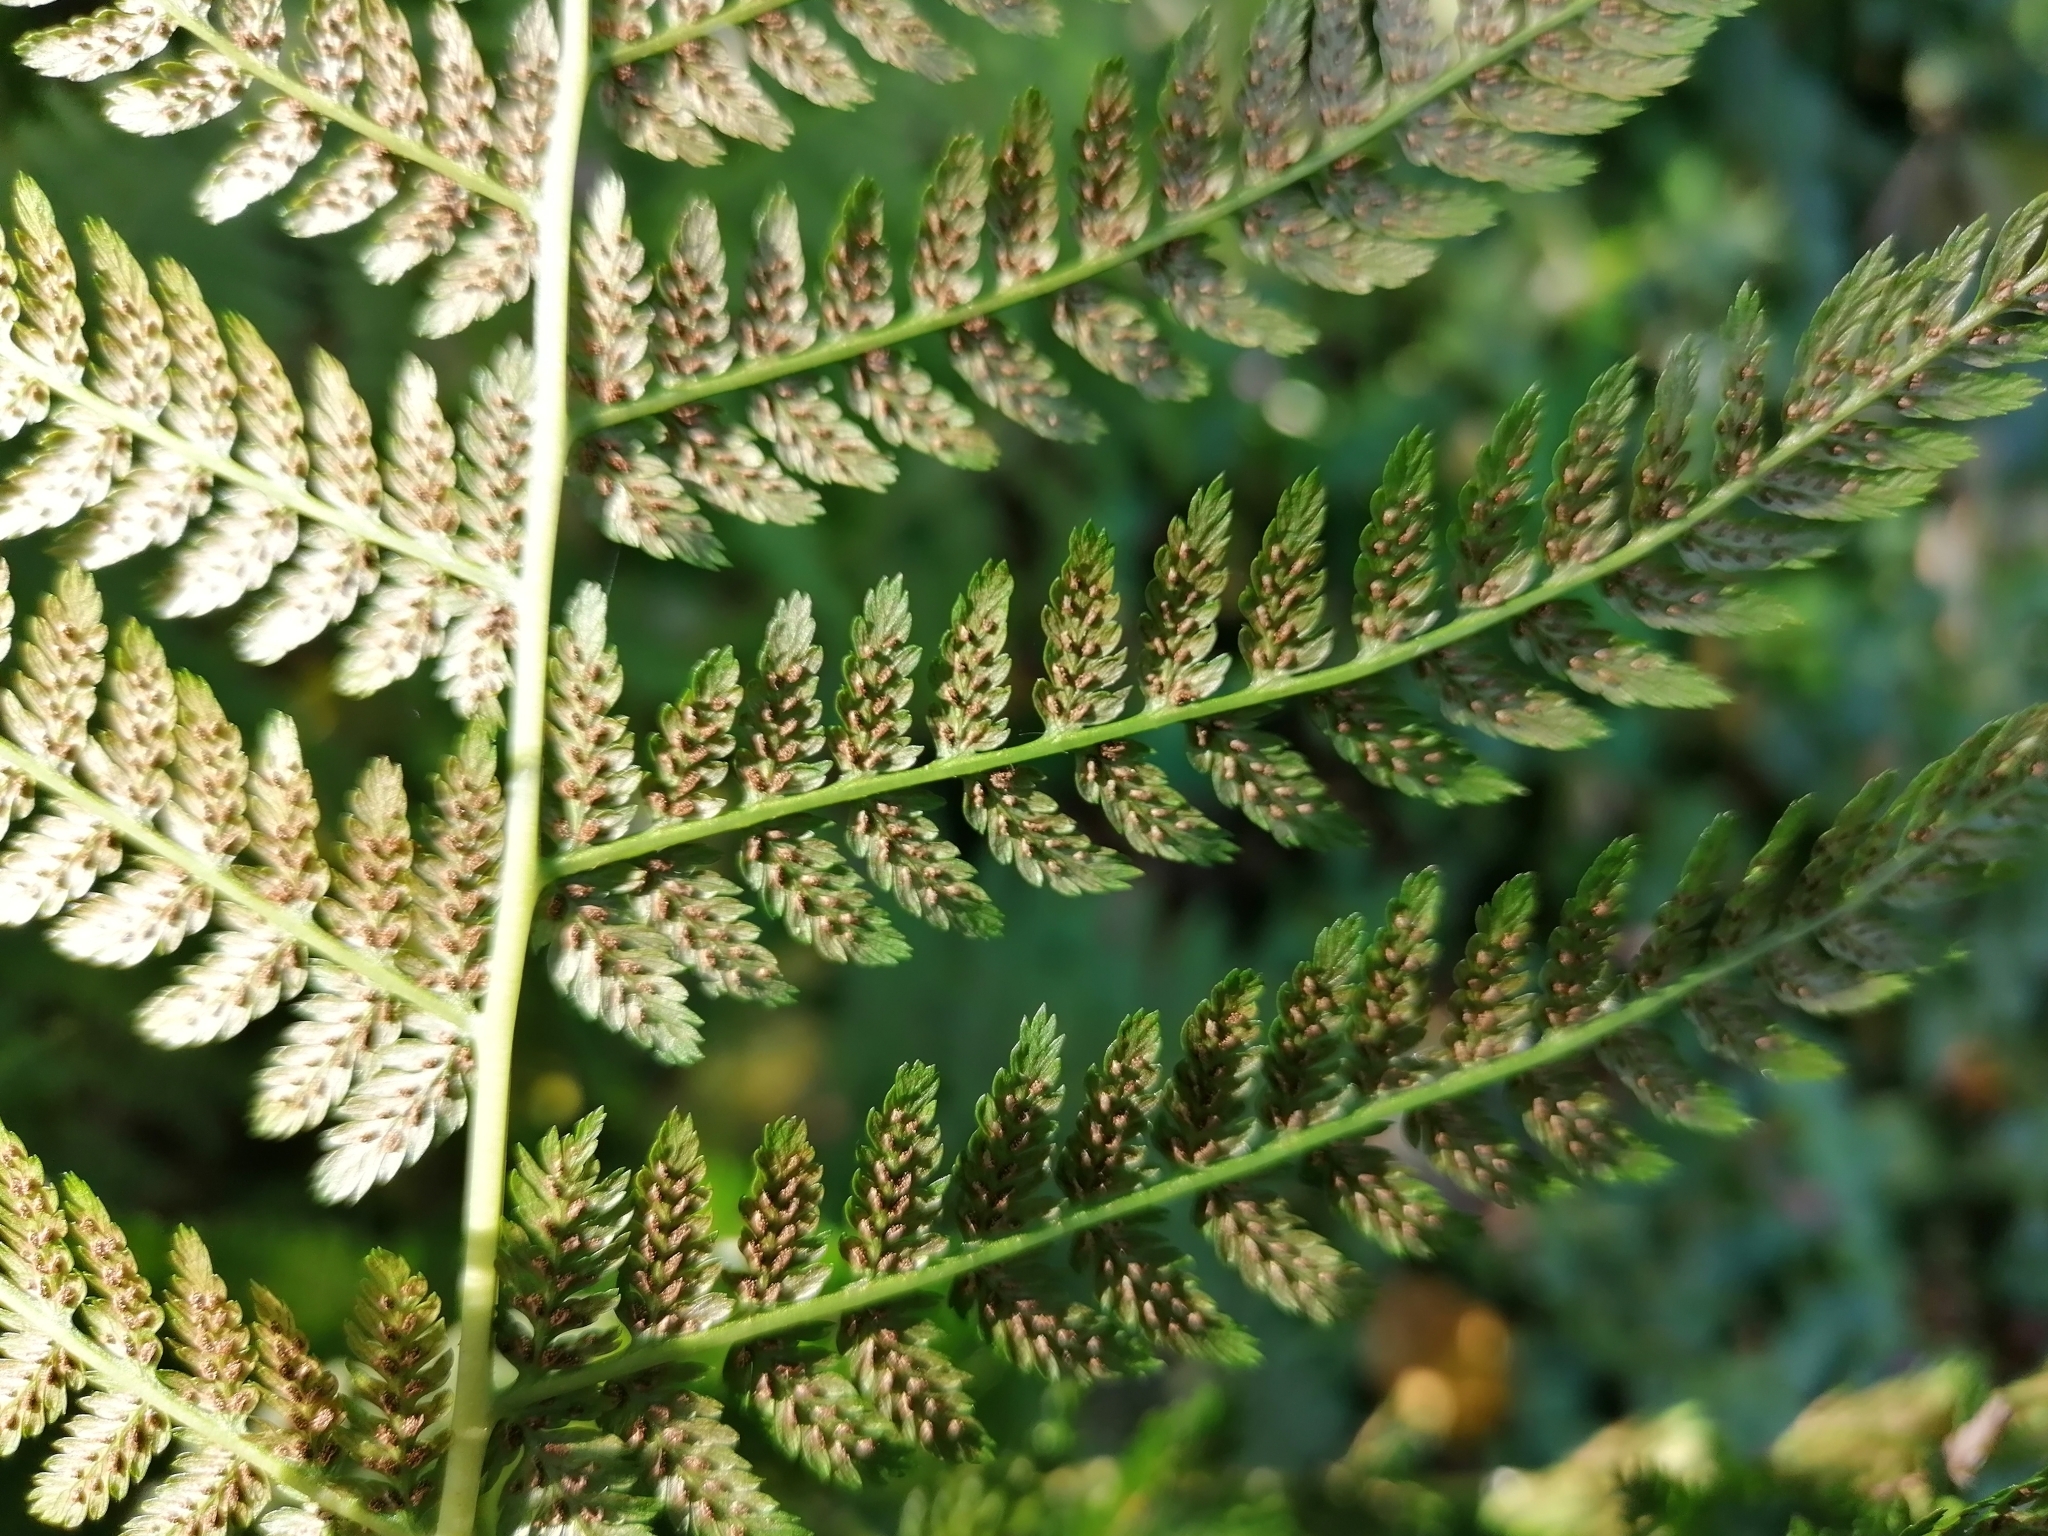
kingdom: Plantae
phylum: Tracheophyta
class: Polypodiopsida
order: Polypodiales
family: Athyriaceae
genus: Athyrium
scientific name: Athyrium filix-femina
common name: Lady fern
